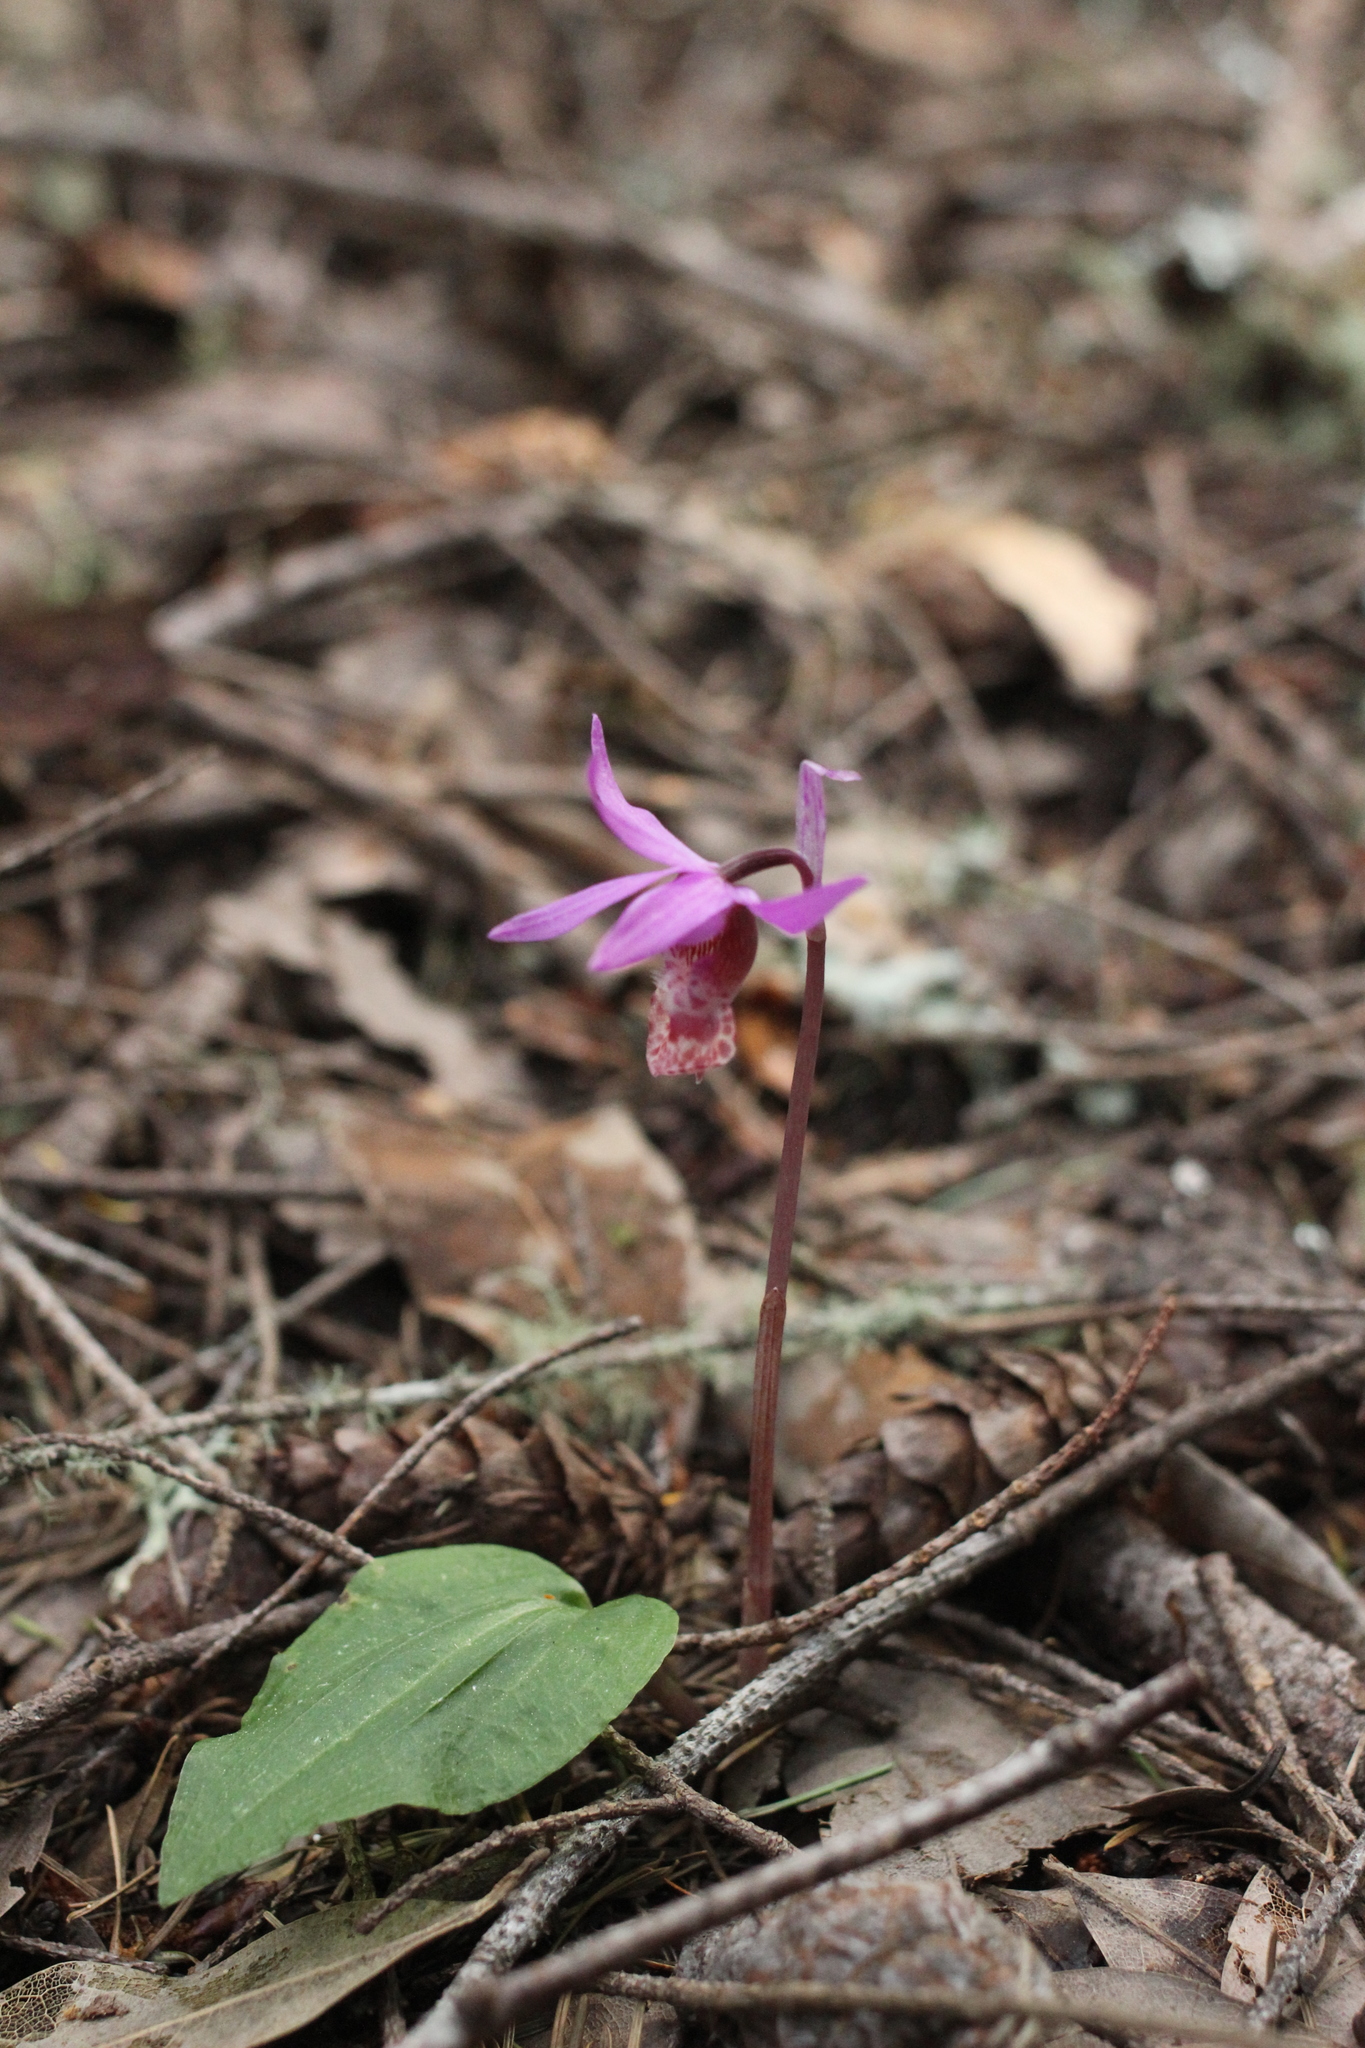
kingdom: Plantae
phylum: Tracheophyta
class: Liliopsida
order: Asparagales
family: Orchidaceae
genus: Calypso
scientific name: Calypso bulbosa
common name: Calypso
